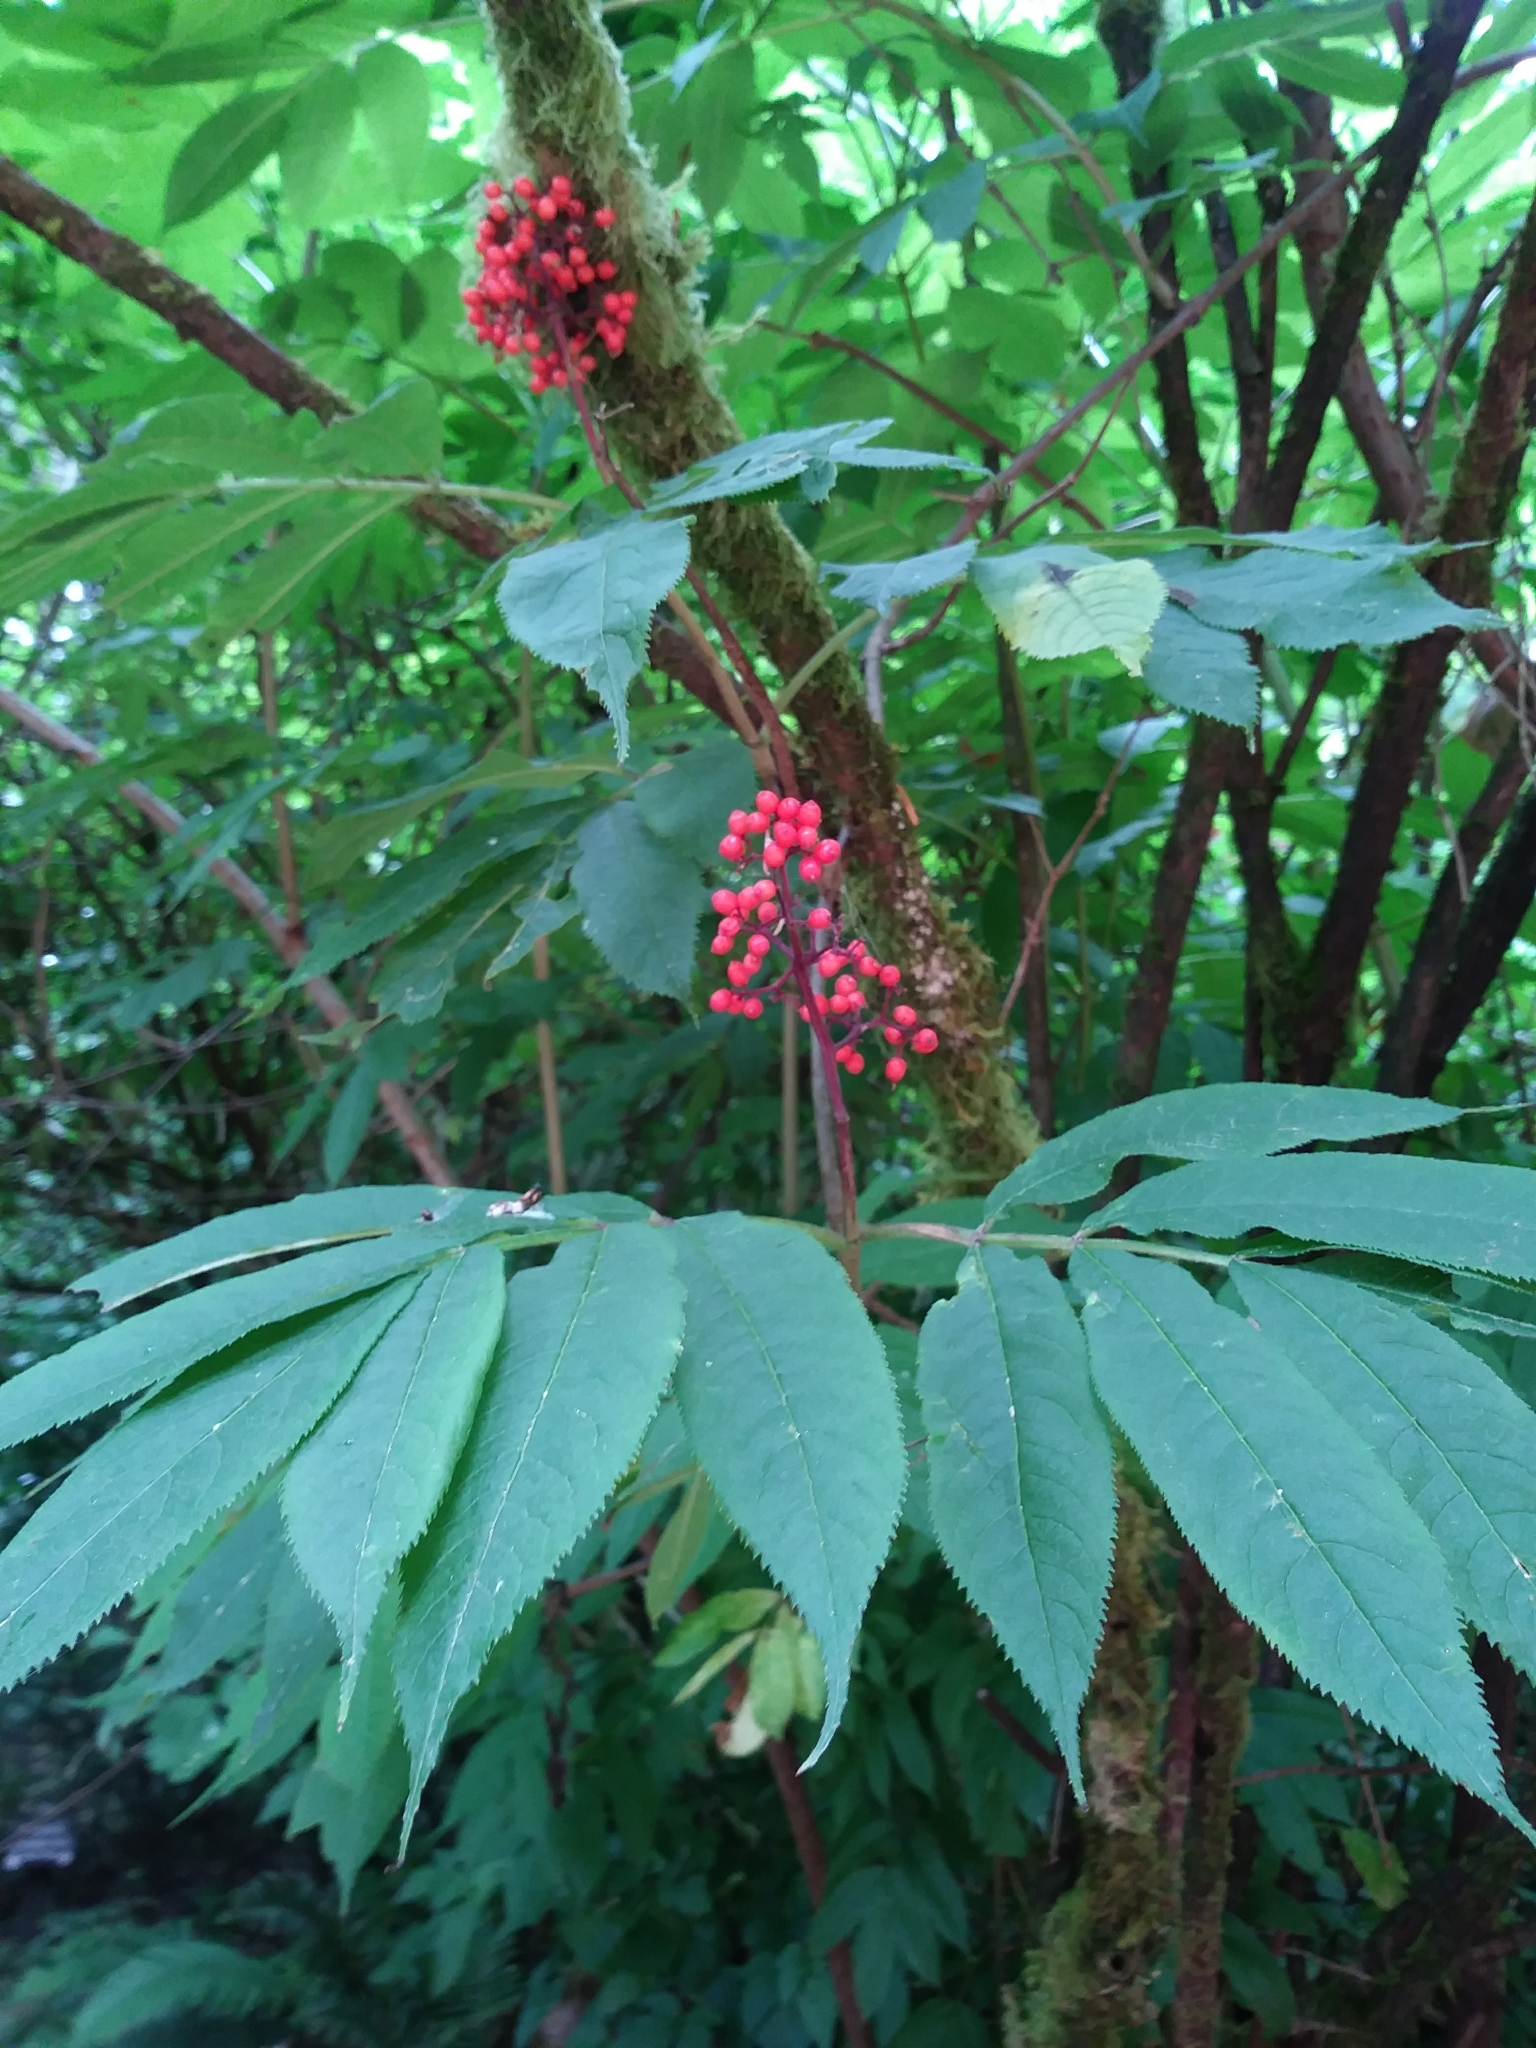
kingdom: Plantae
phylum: Tracheophyta
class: Magnoliopsida
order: Dipsacales
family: Viburnaceae
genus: Sambucus
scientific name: Sambucus racemosa
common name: Red-berried elder
